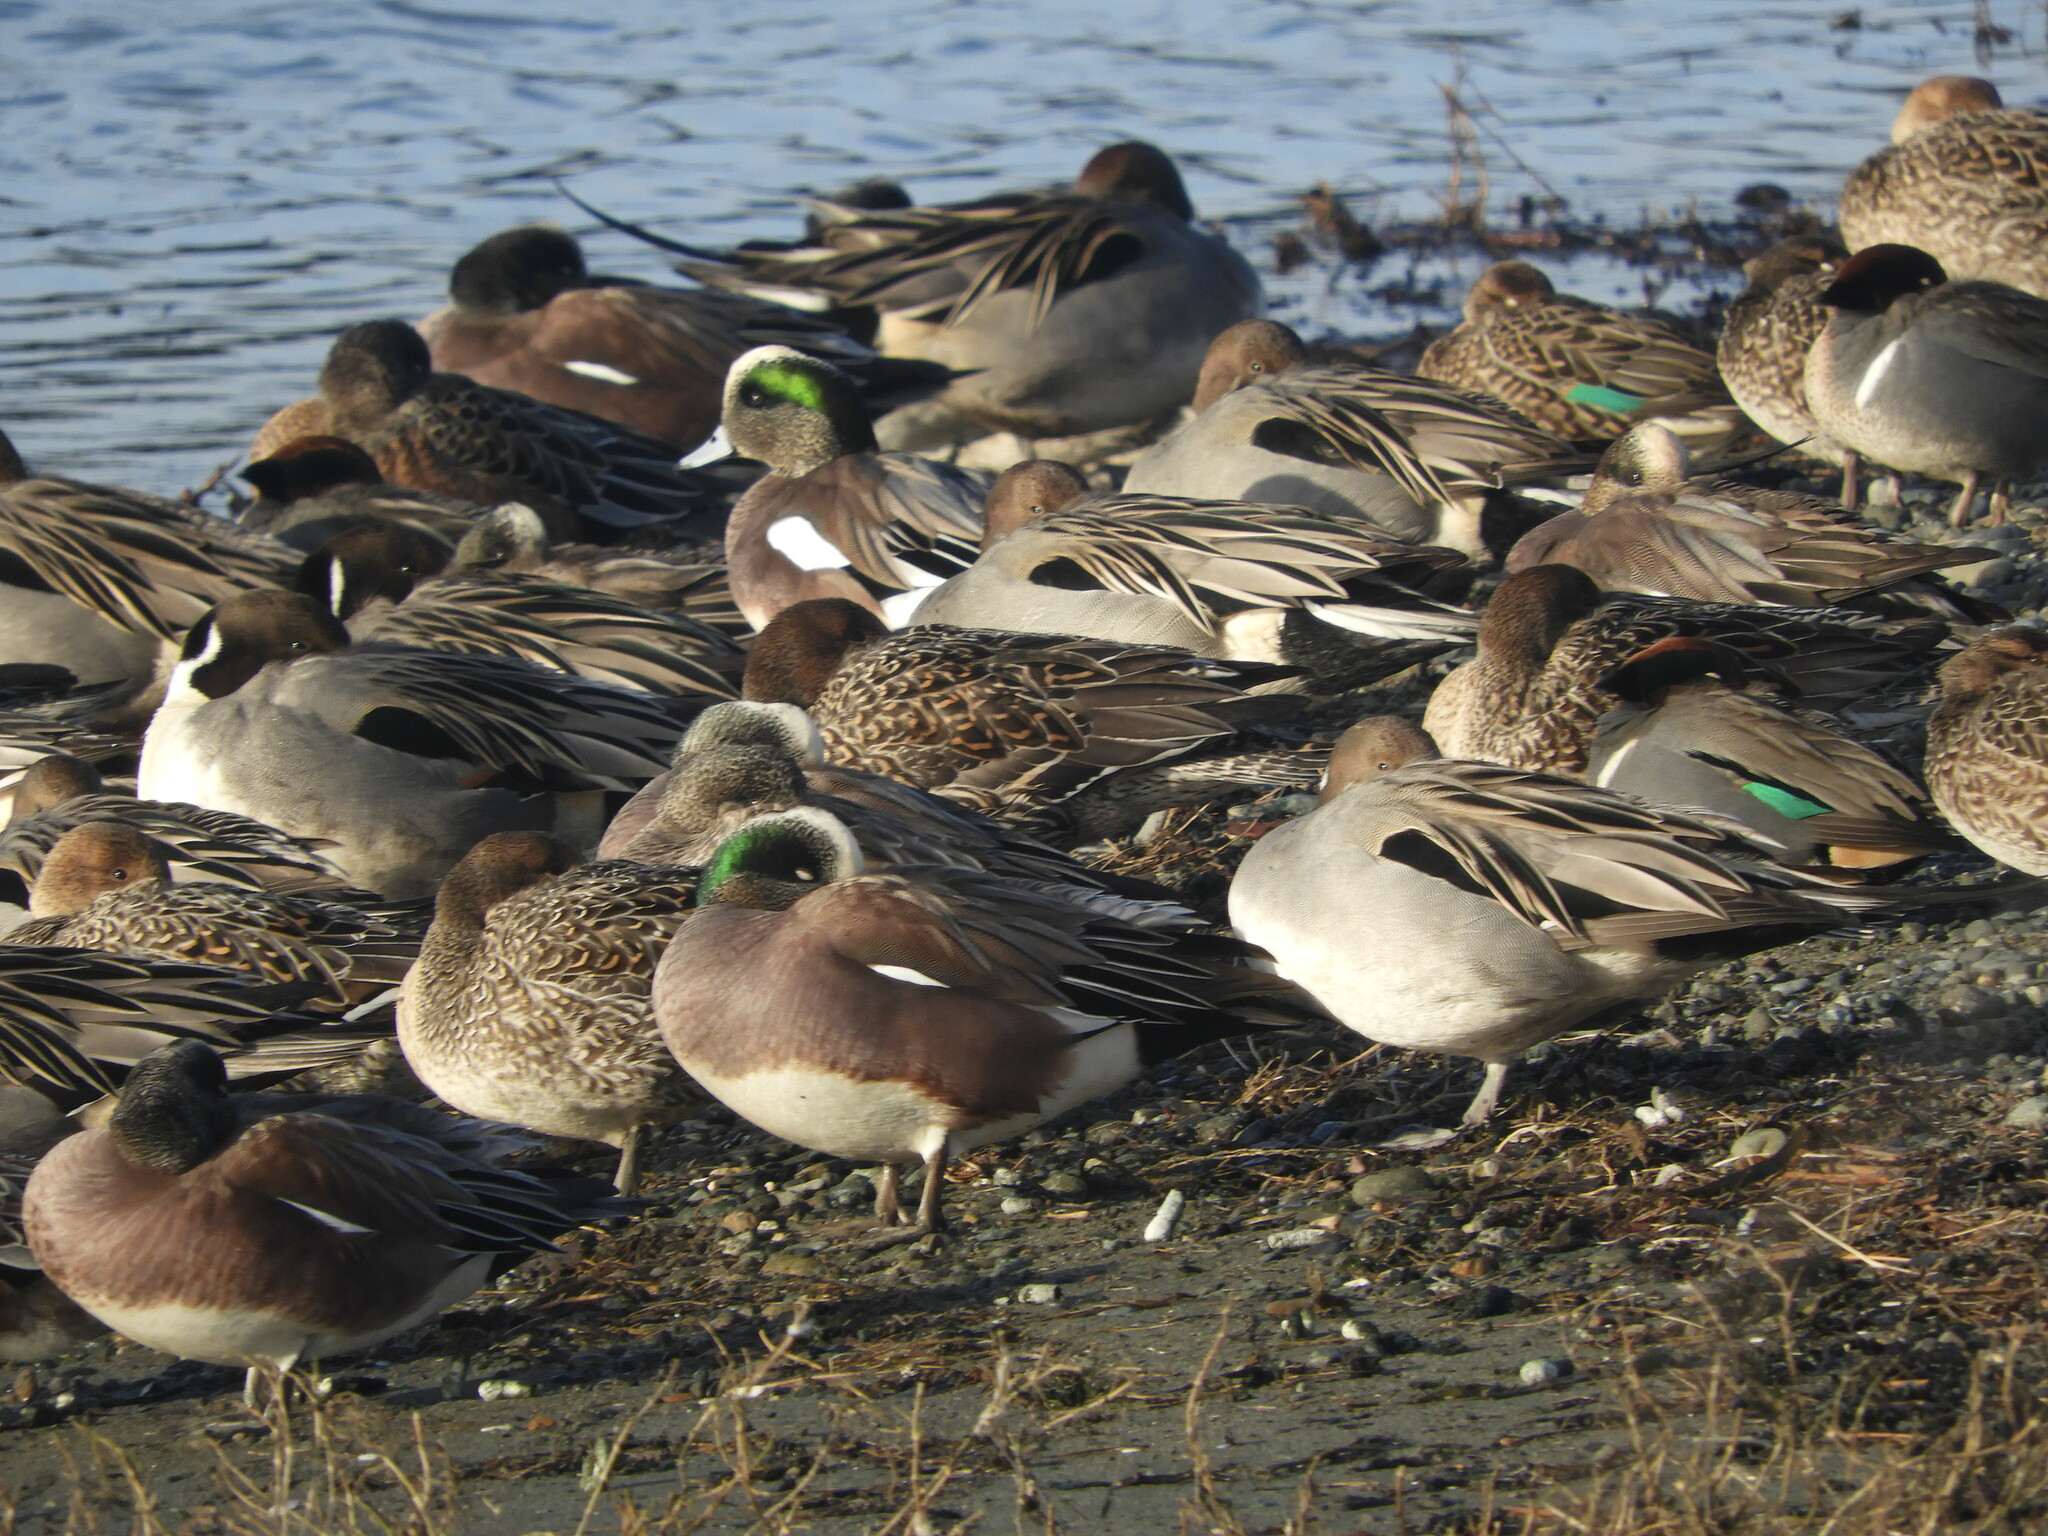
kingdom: Animalia
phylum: Chordata
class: Aves
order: Anseriformes
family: Anatidae
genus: Anas
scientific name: Anas acuta
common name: Northern pintail
